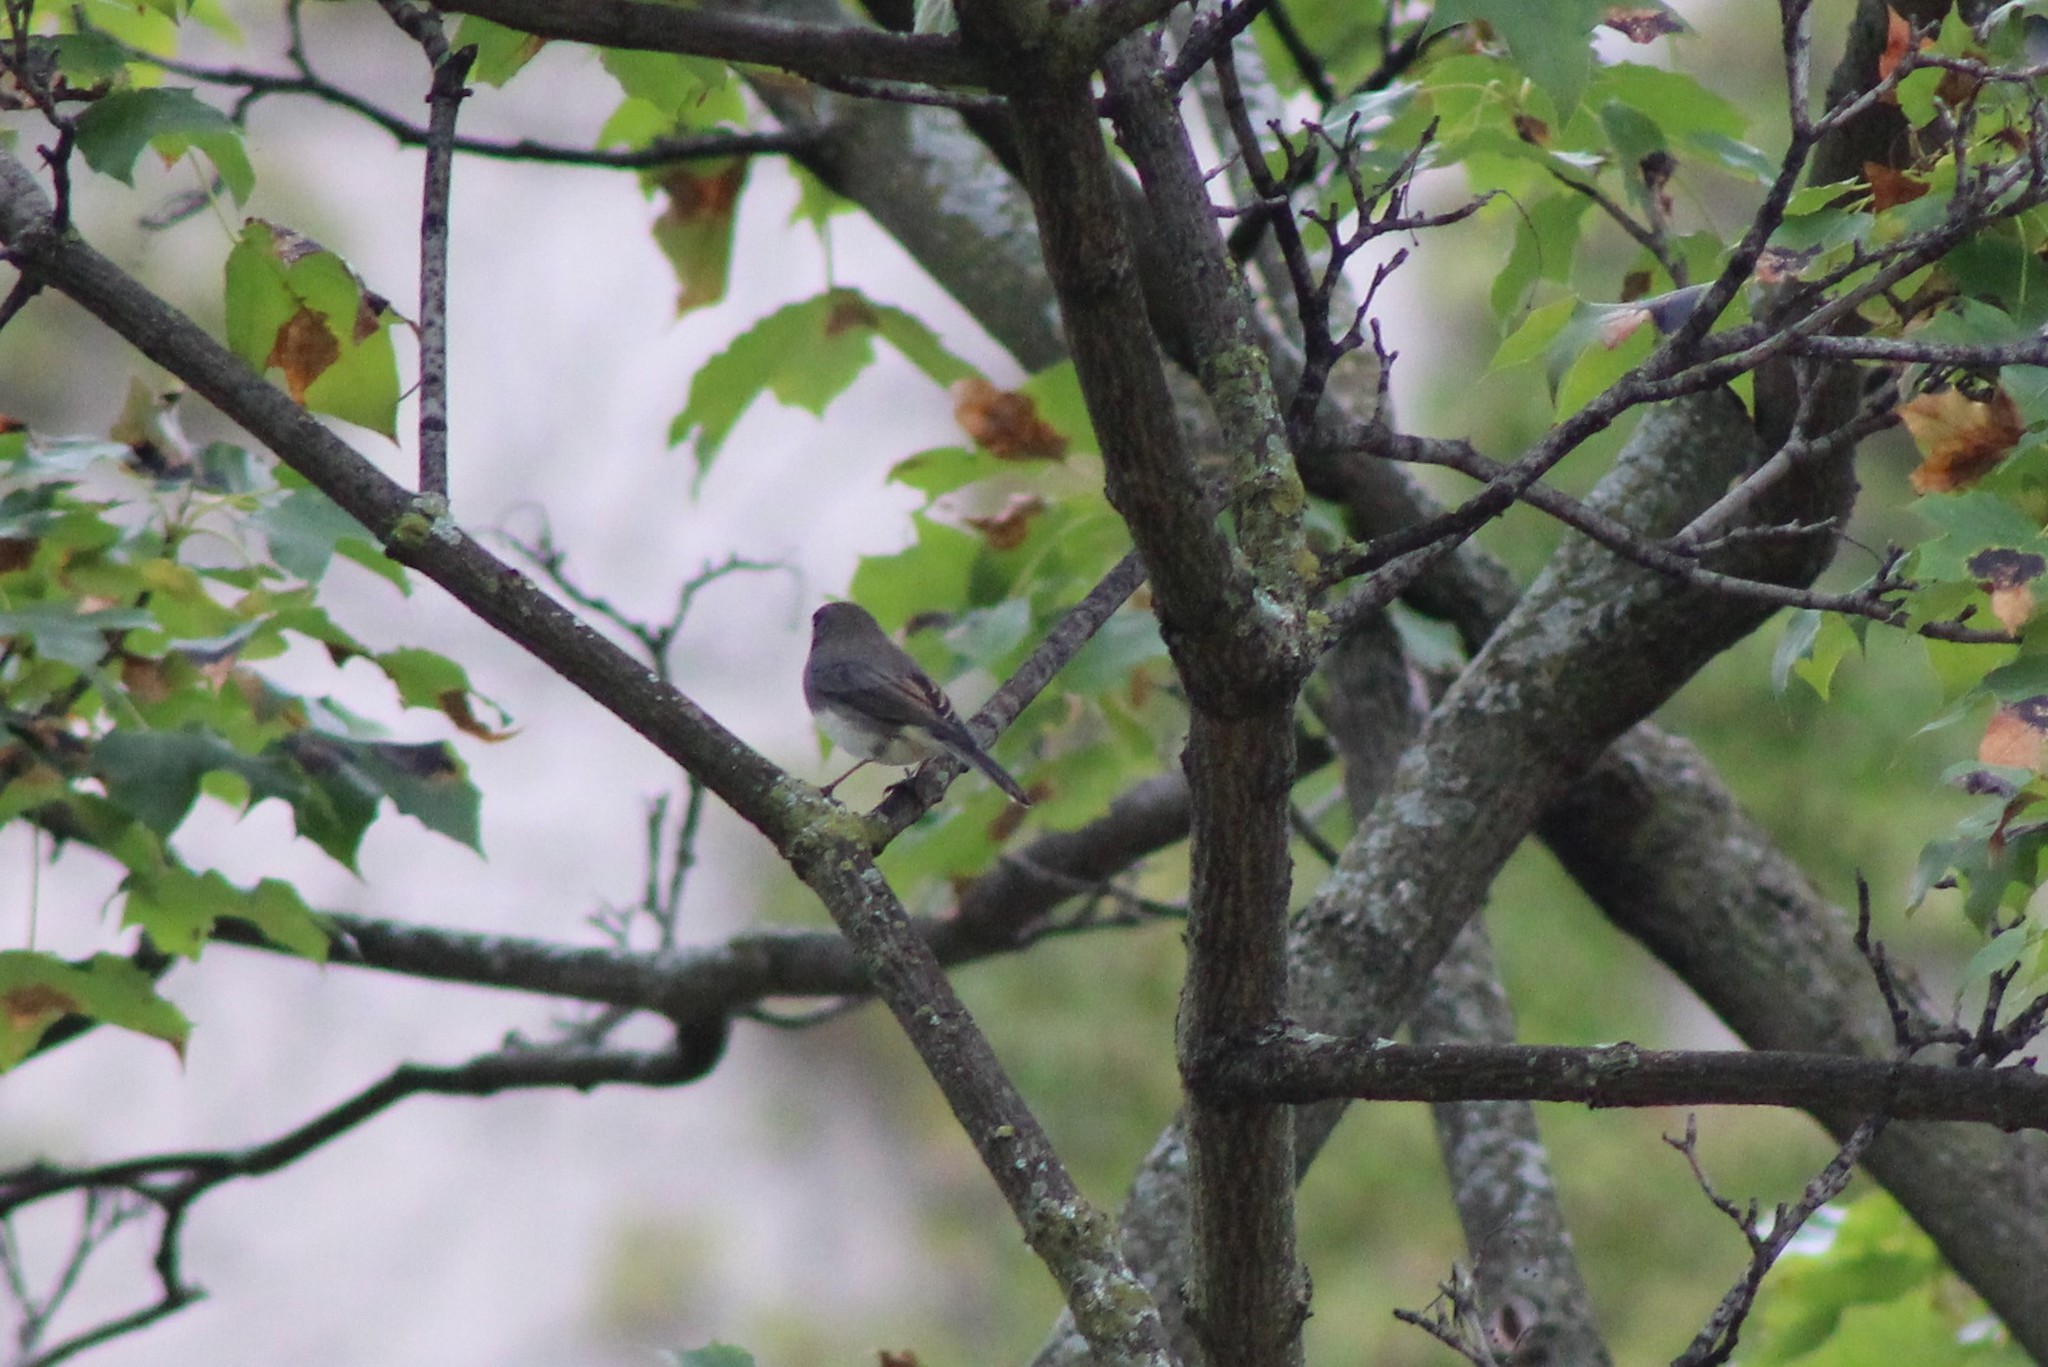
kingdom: Animalia
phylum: Chordata
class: Aves
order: Passeriformes
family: Passerellidae
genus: Junco
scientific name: Junco hyemalis
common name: Dark-eyed junco
